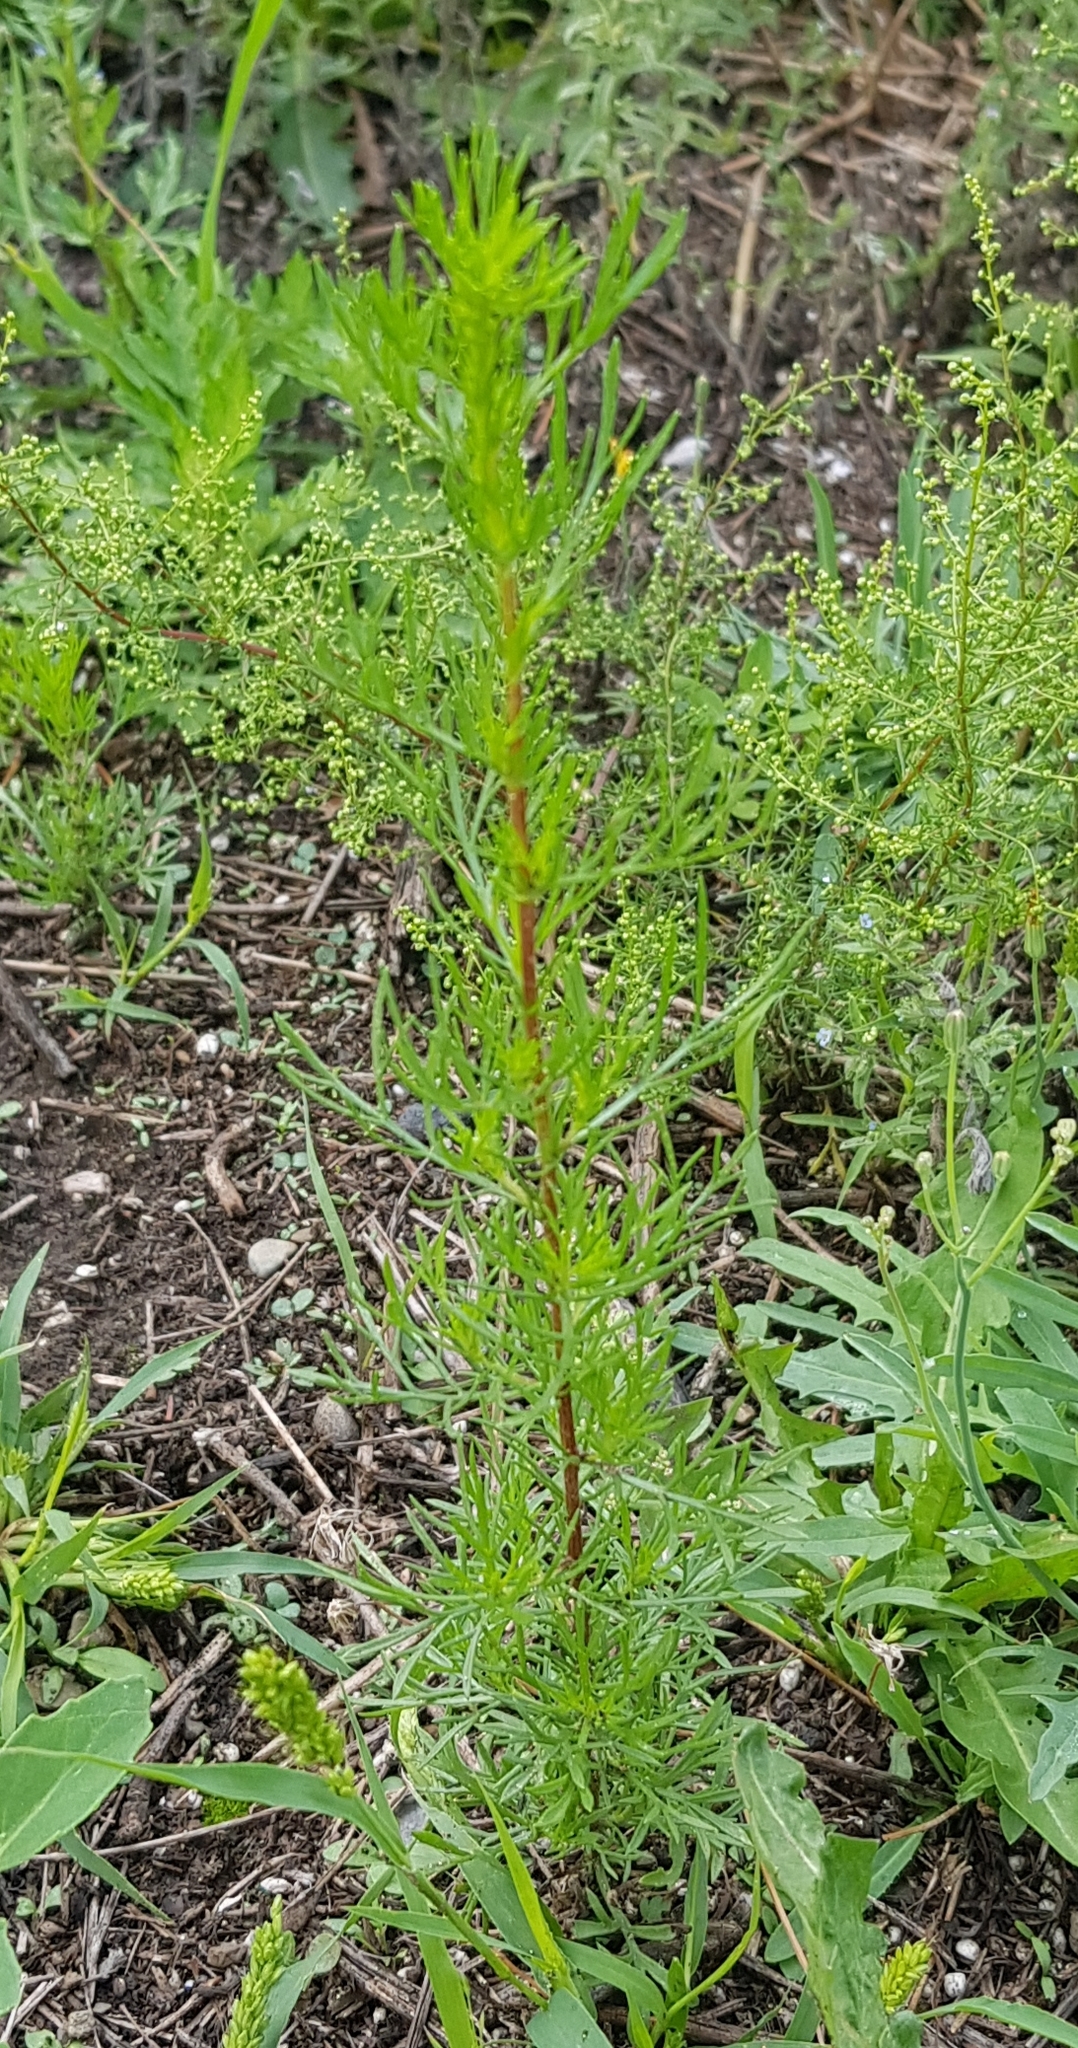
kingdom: Plantae
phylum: Tracheophyta
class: Magnoliopsida
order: Asterales
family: Asteraceae
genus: Artemisia
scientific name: Artemisia dracunculus
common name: Tarragon
